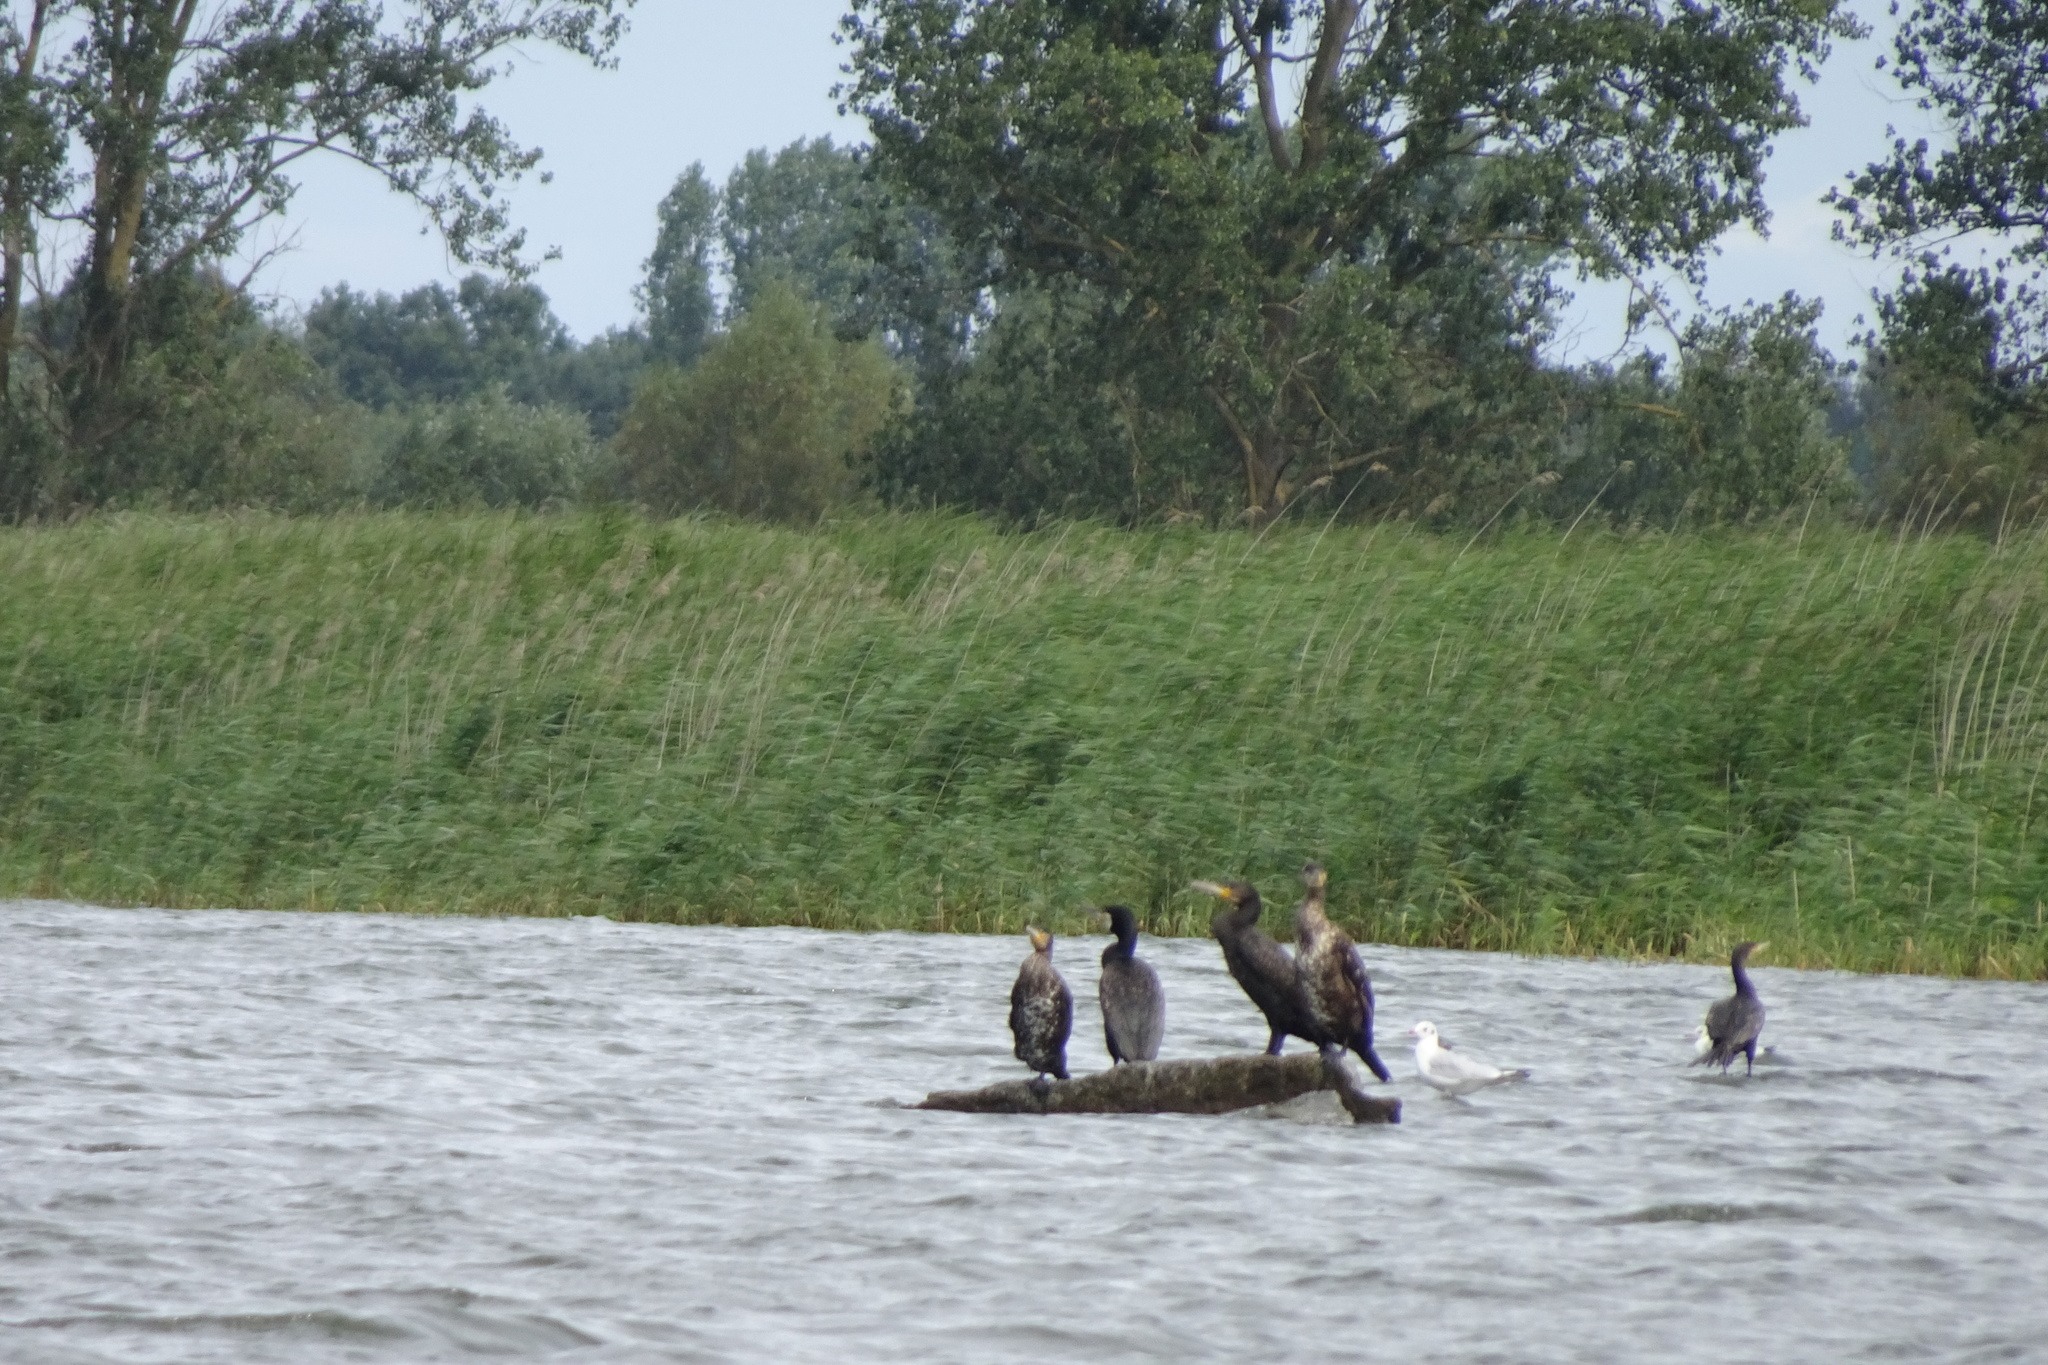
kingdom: Animalia
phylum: Chordata
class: Aves
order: Suliformes
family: Phalacrocoracidae
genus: Phalacrocorax
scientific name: Phalacrocorax carbo
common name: Great cormorant
